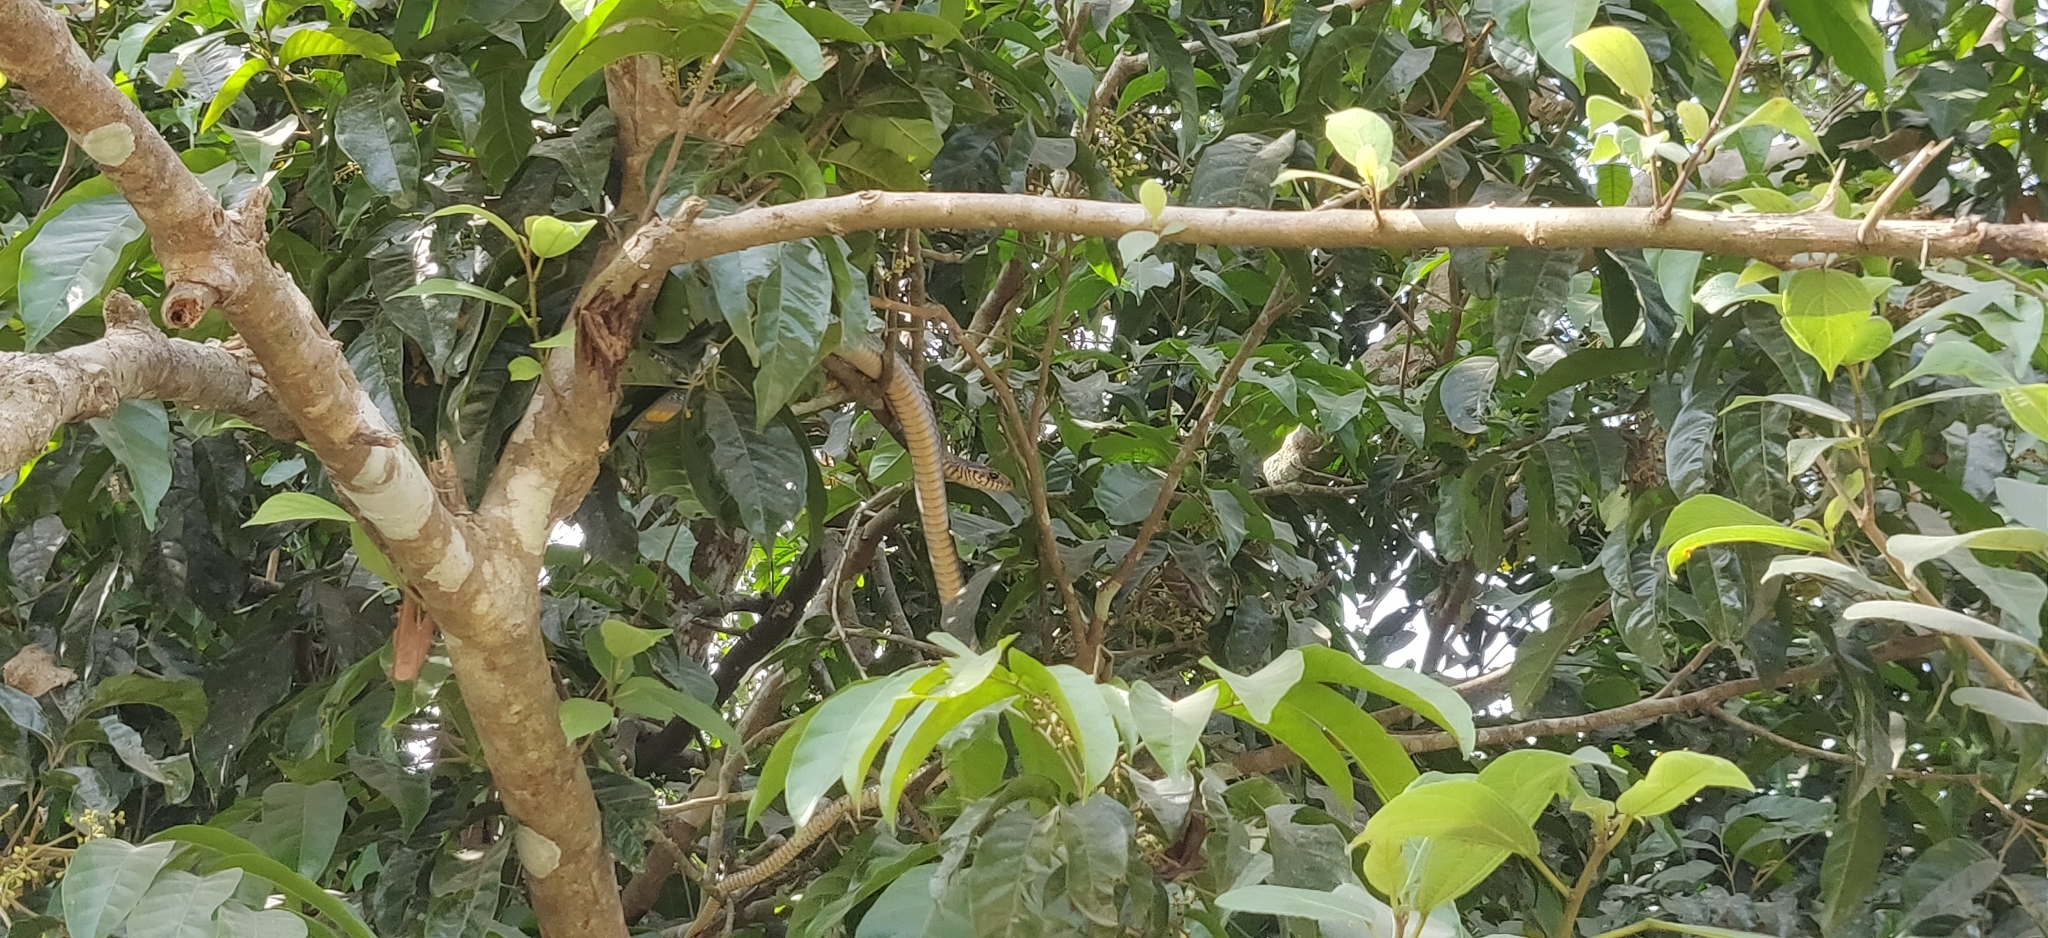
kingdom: Animalia
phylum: Chordata
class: Squamata
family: Colubridae
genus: Ptyas
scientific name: Ptyas mucosa
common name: Oriental ratsnake
